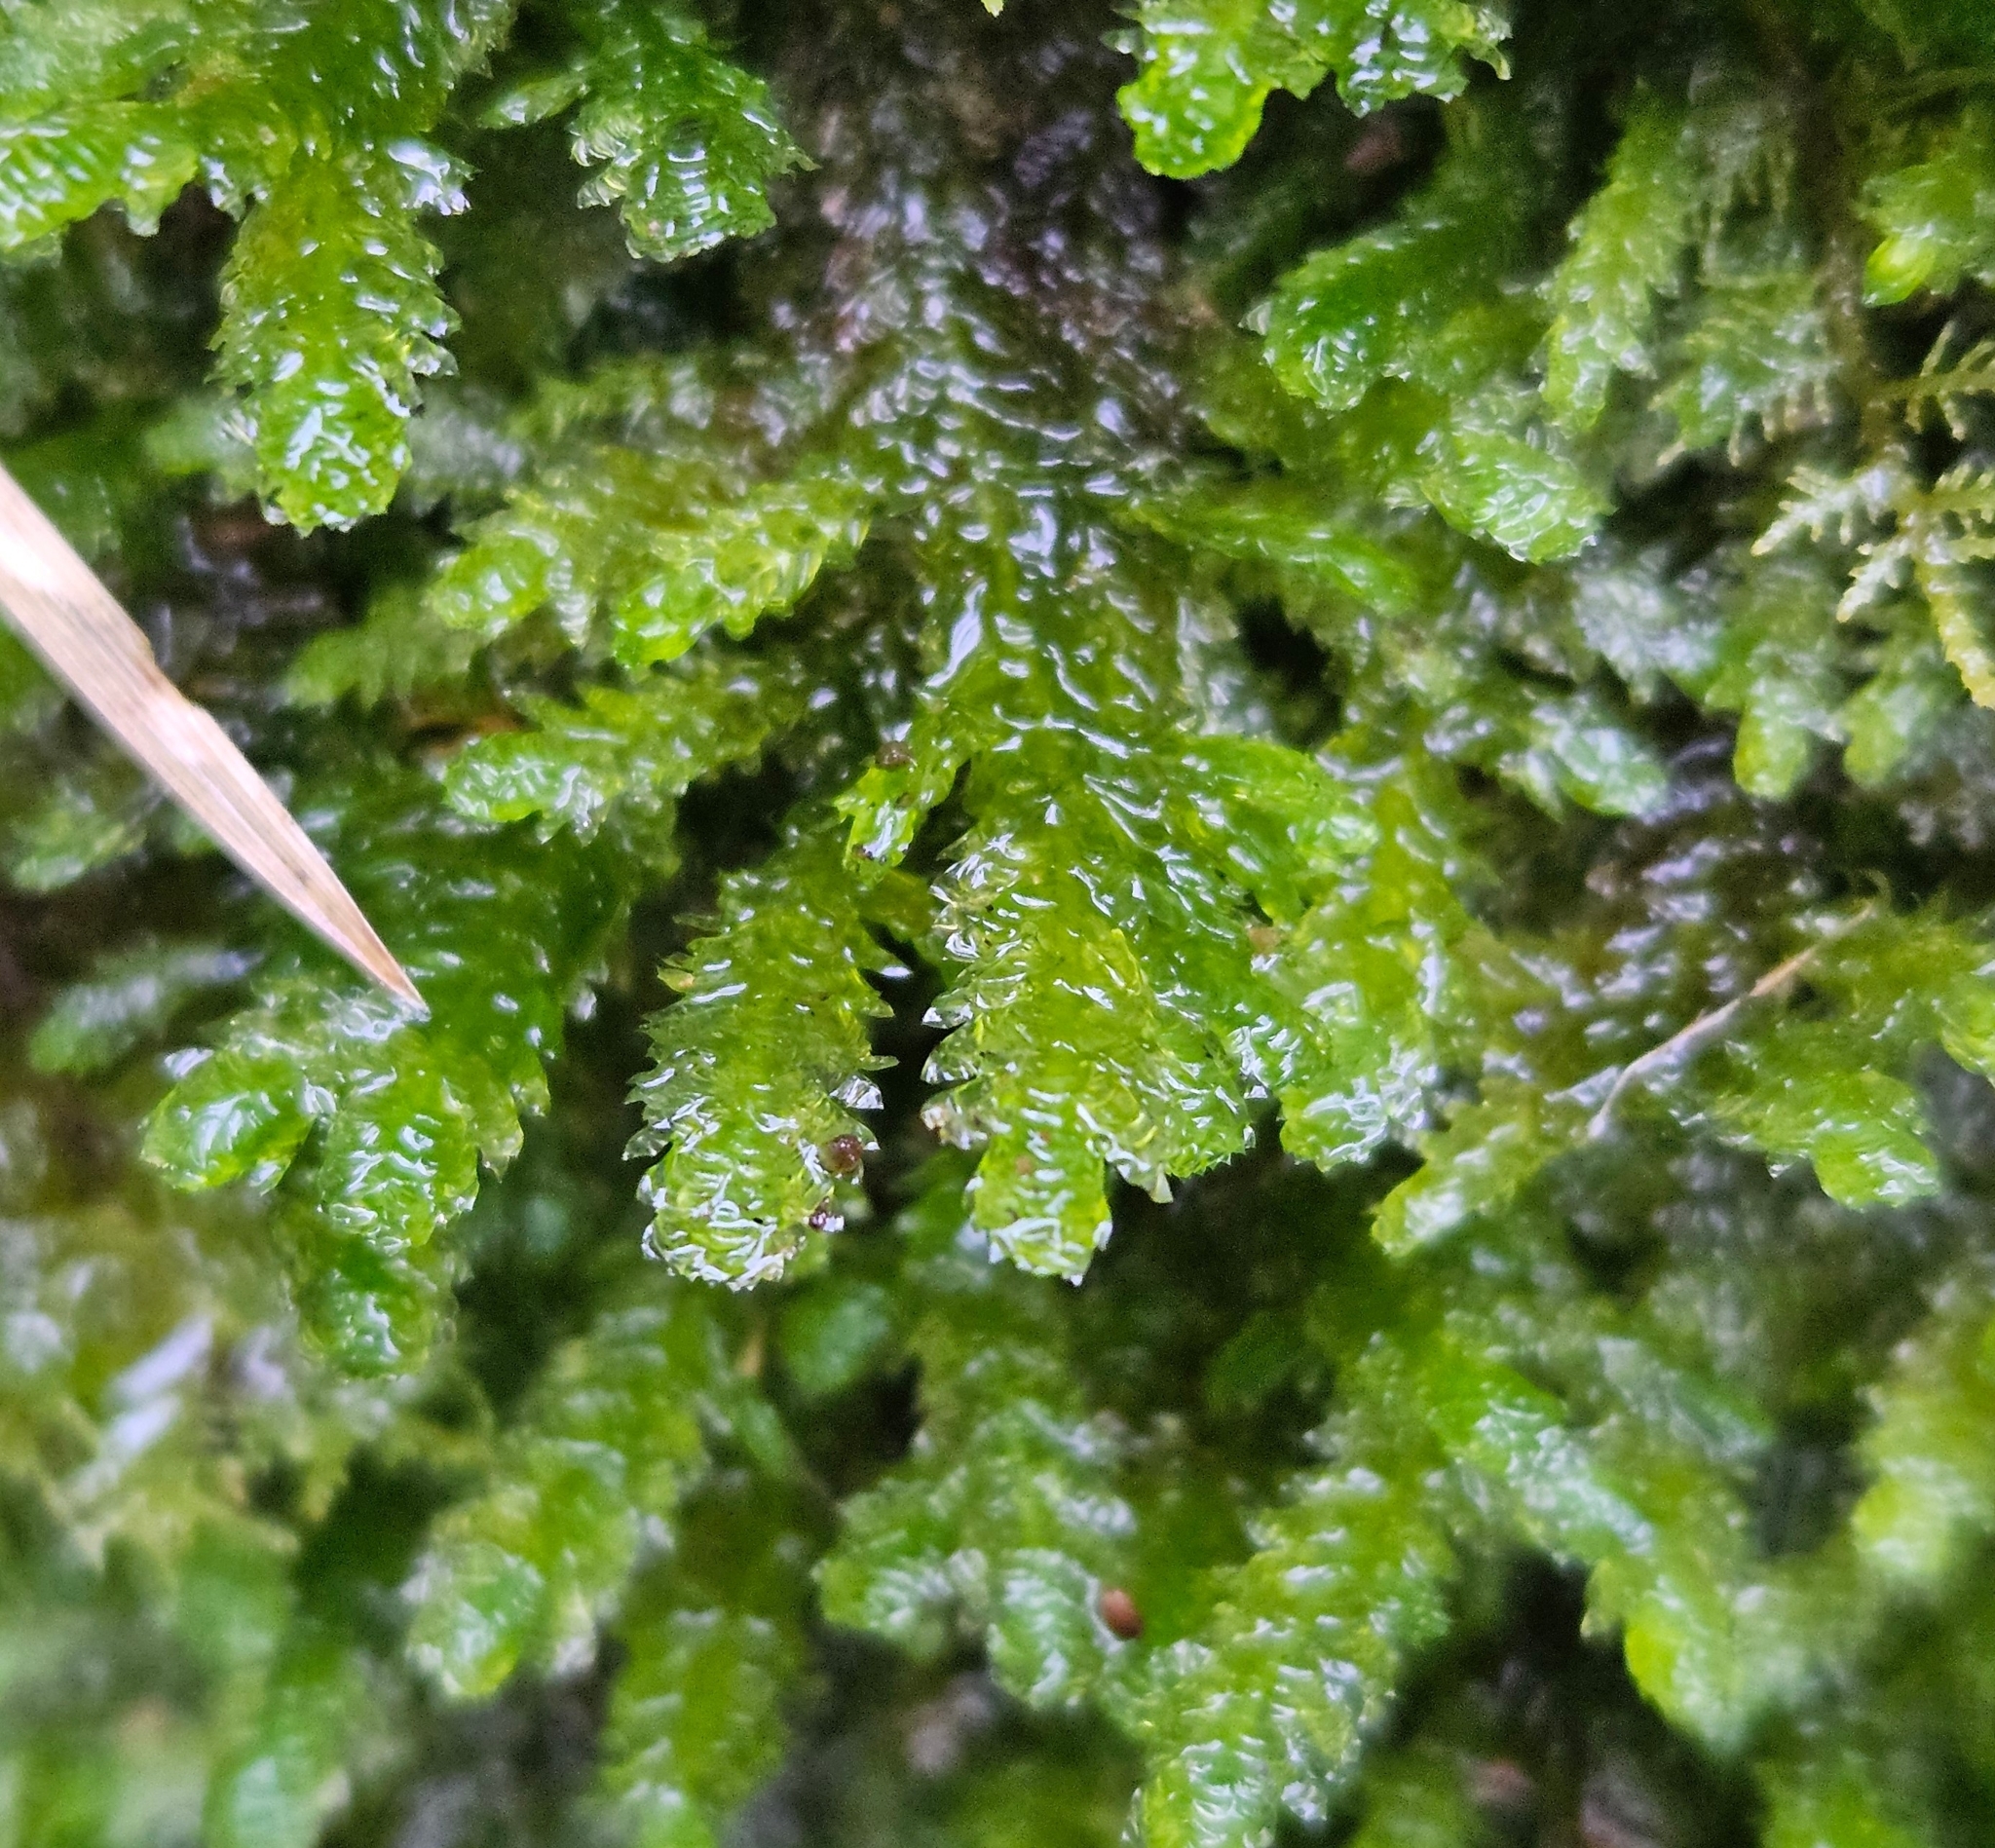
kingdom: Plantae
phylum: Bryophyta
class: Bryopsida
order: Hypnales
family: Neckeraceae
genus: Exsertotheca
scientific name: Exsertotheca crispa
